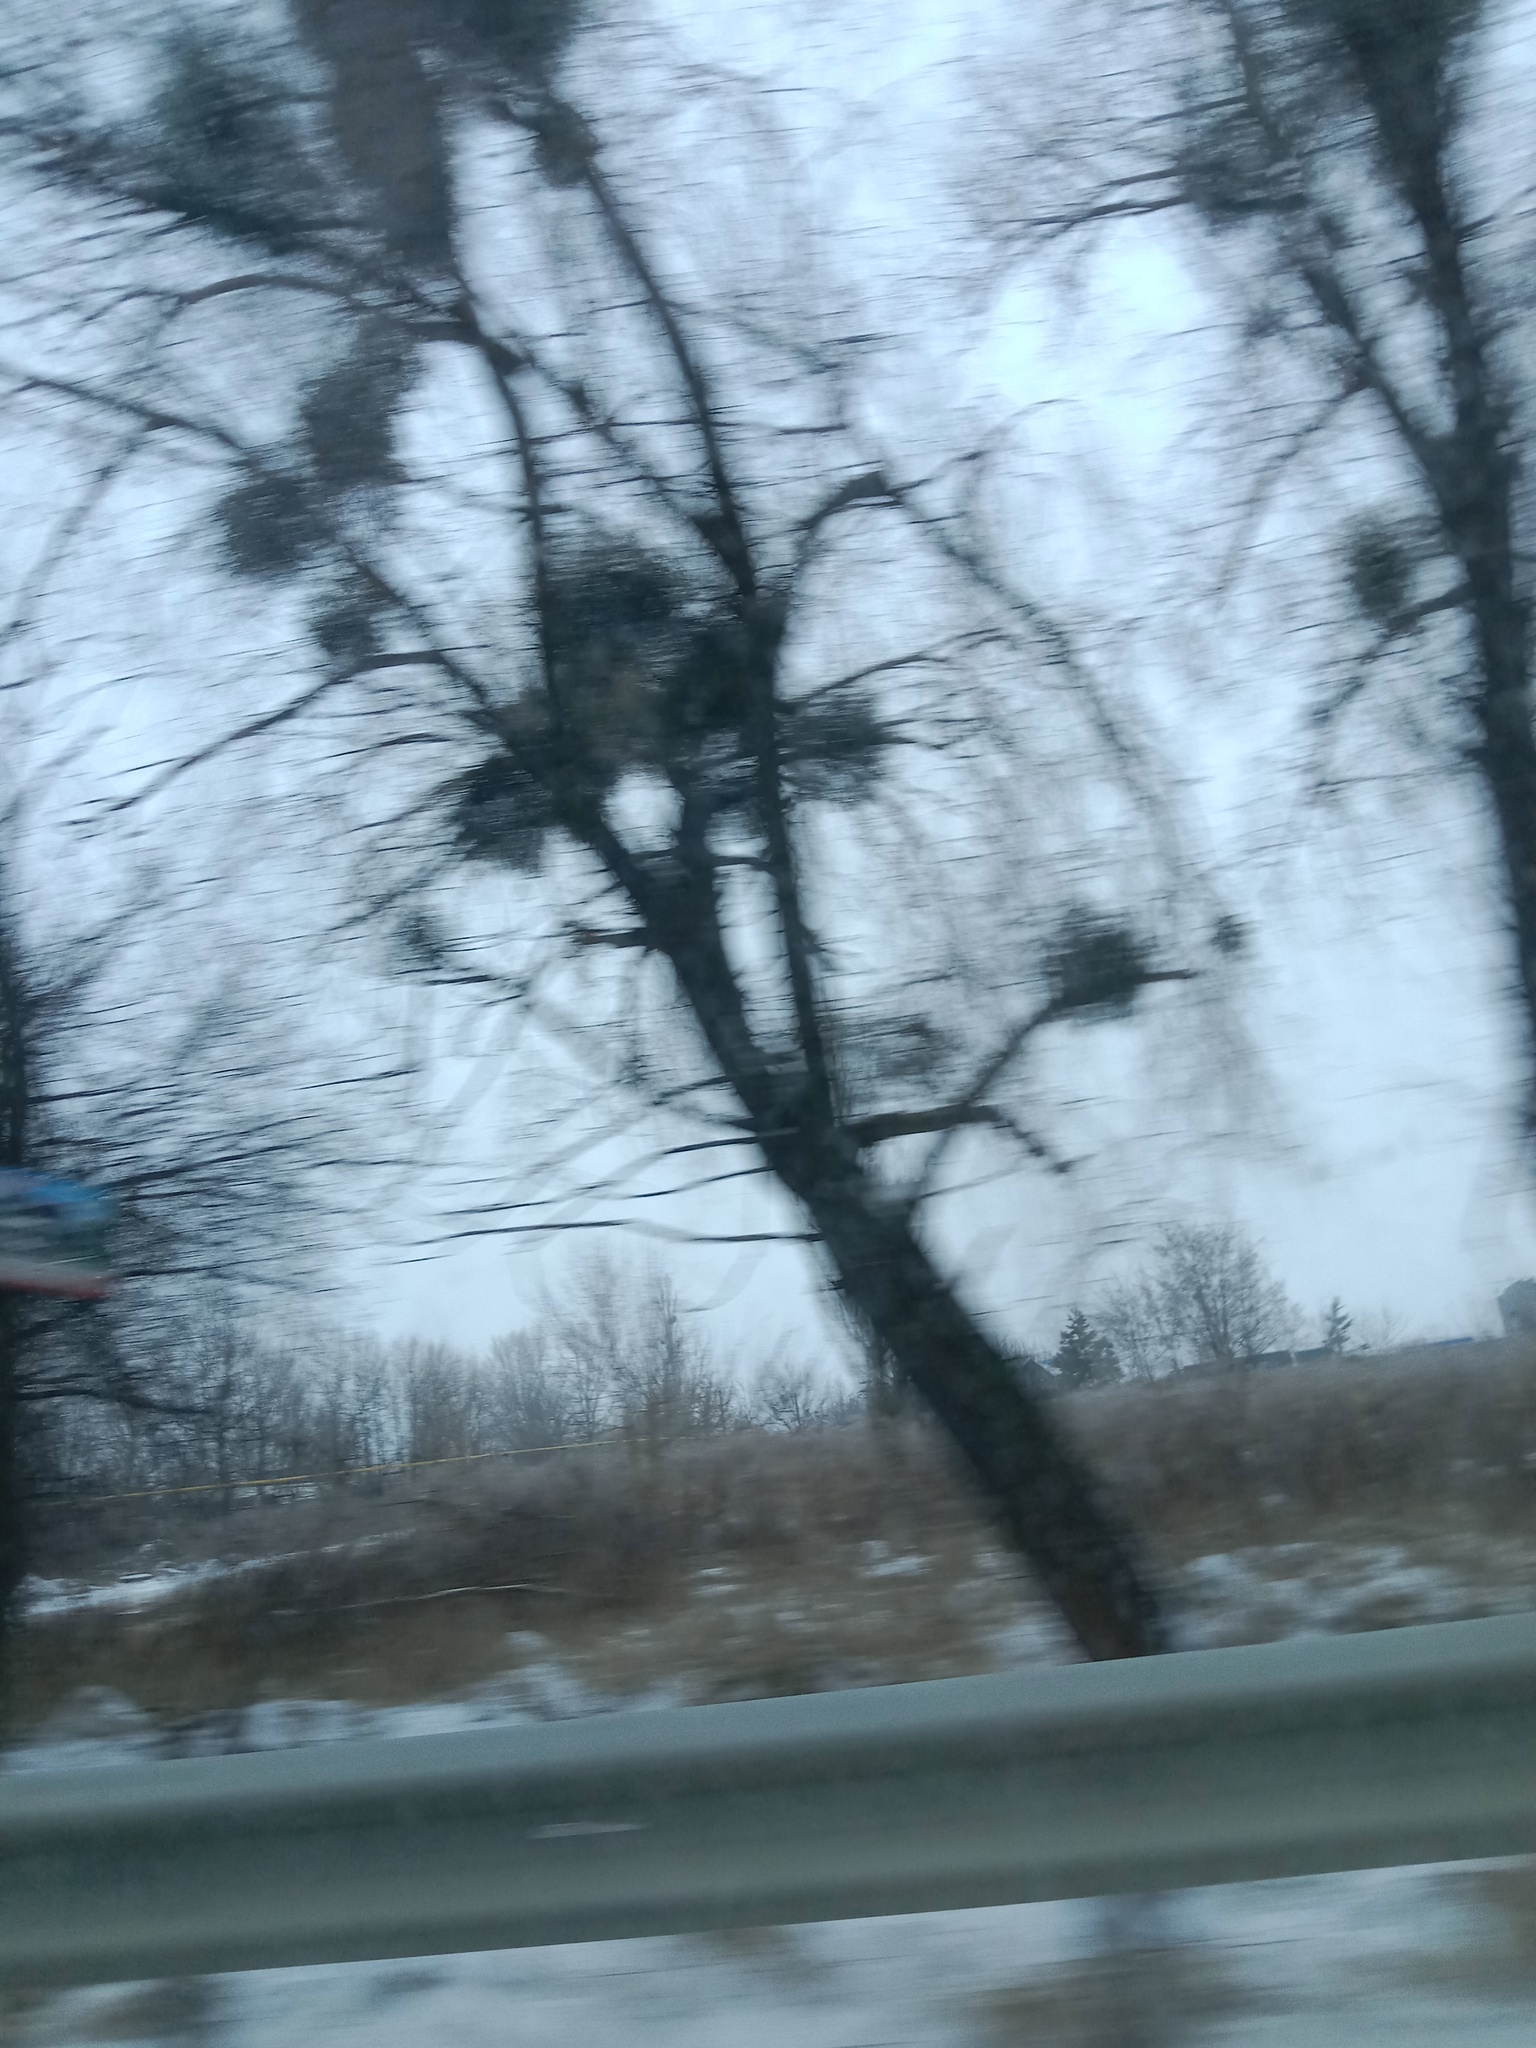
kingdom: Plantae
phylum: Tracheophyta
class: Magnoliopsida
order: Santalales
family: Viscaceae
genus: Viscum
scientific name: Viscum album
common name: Mistletoe
